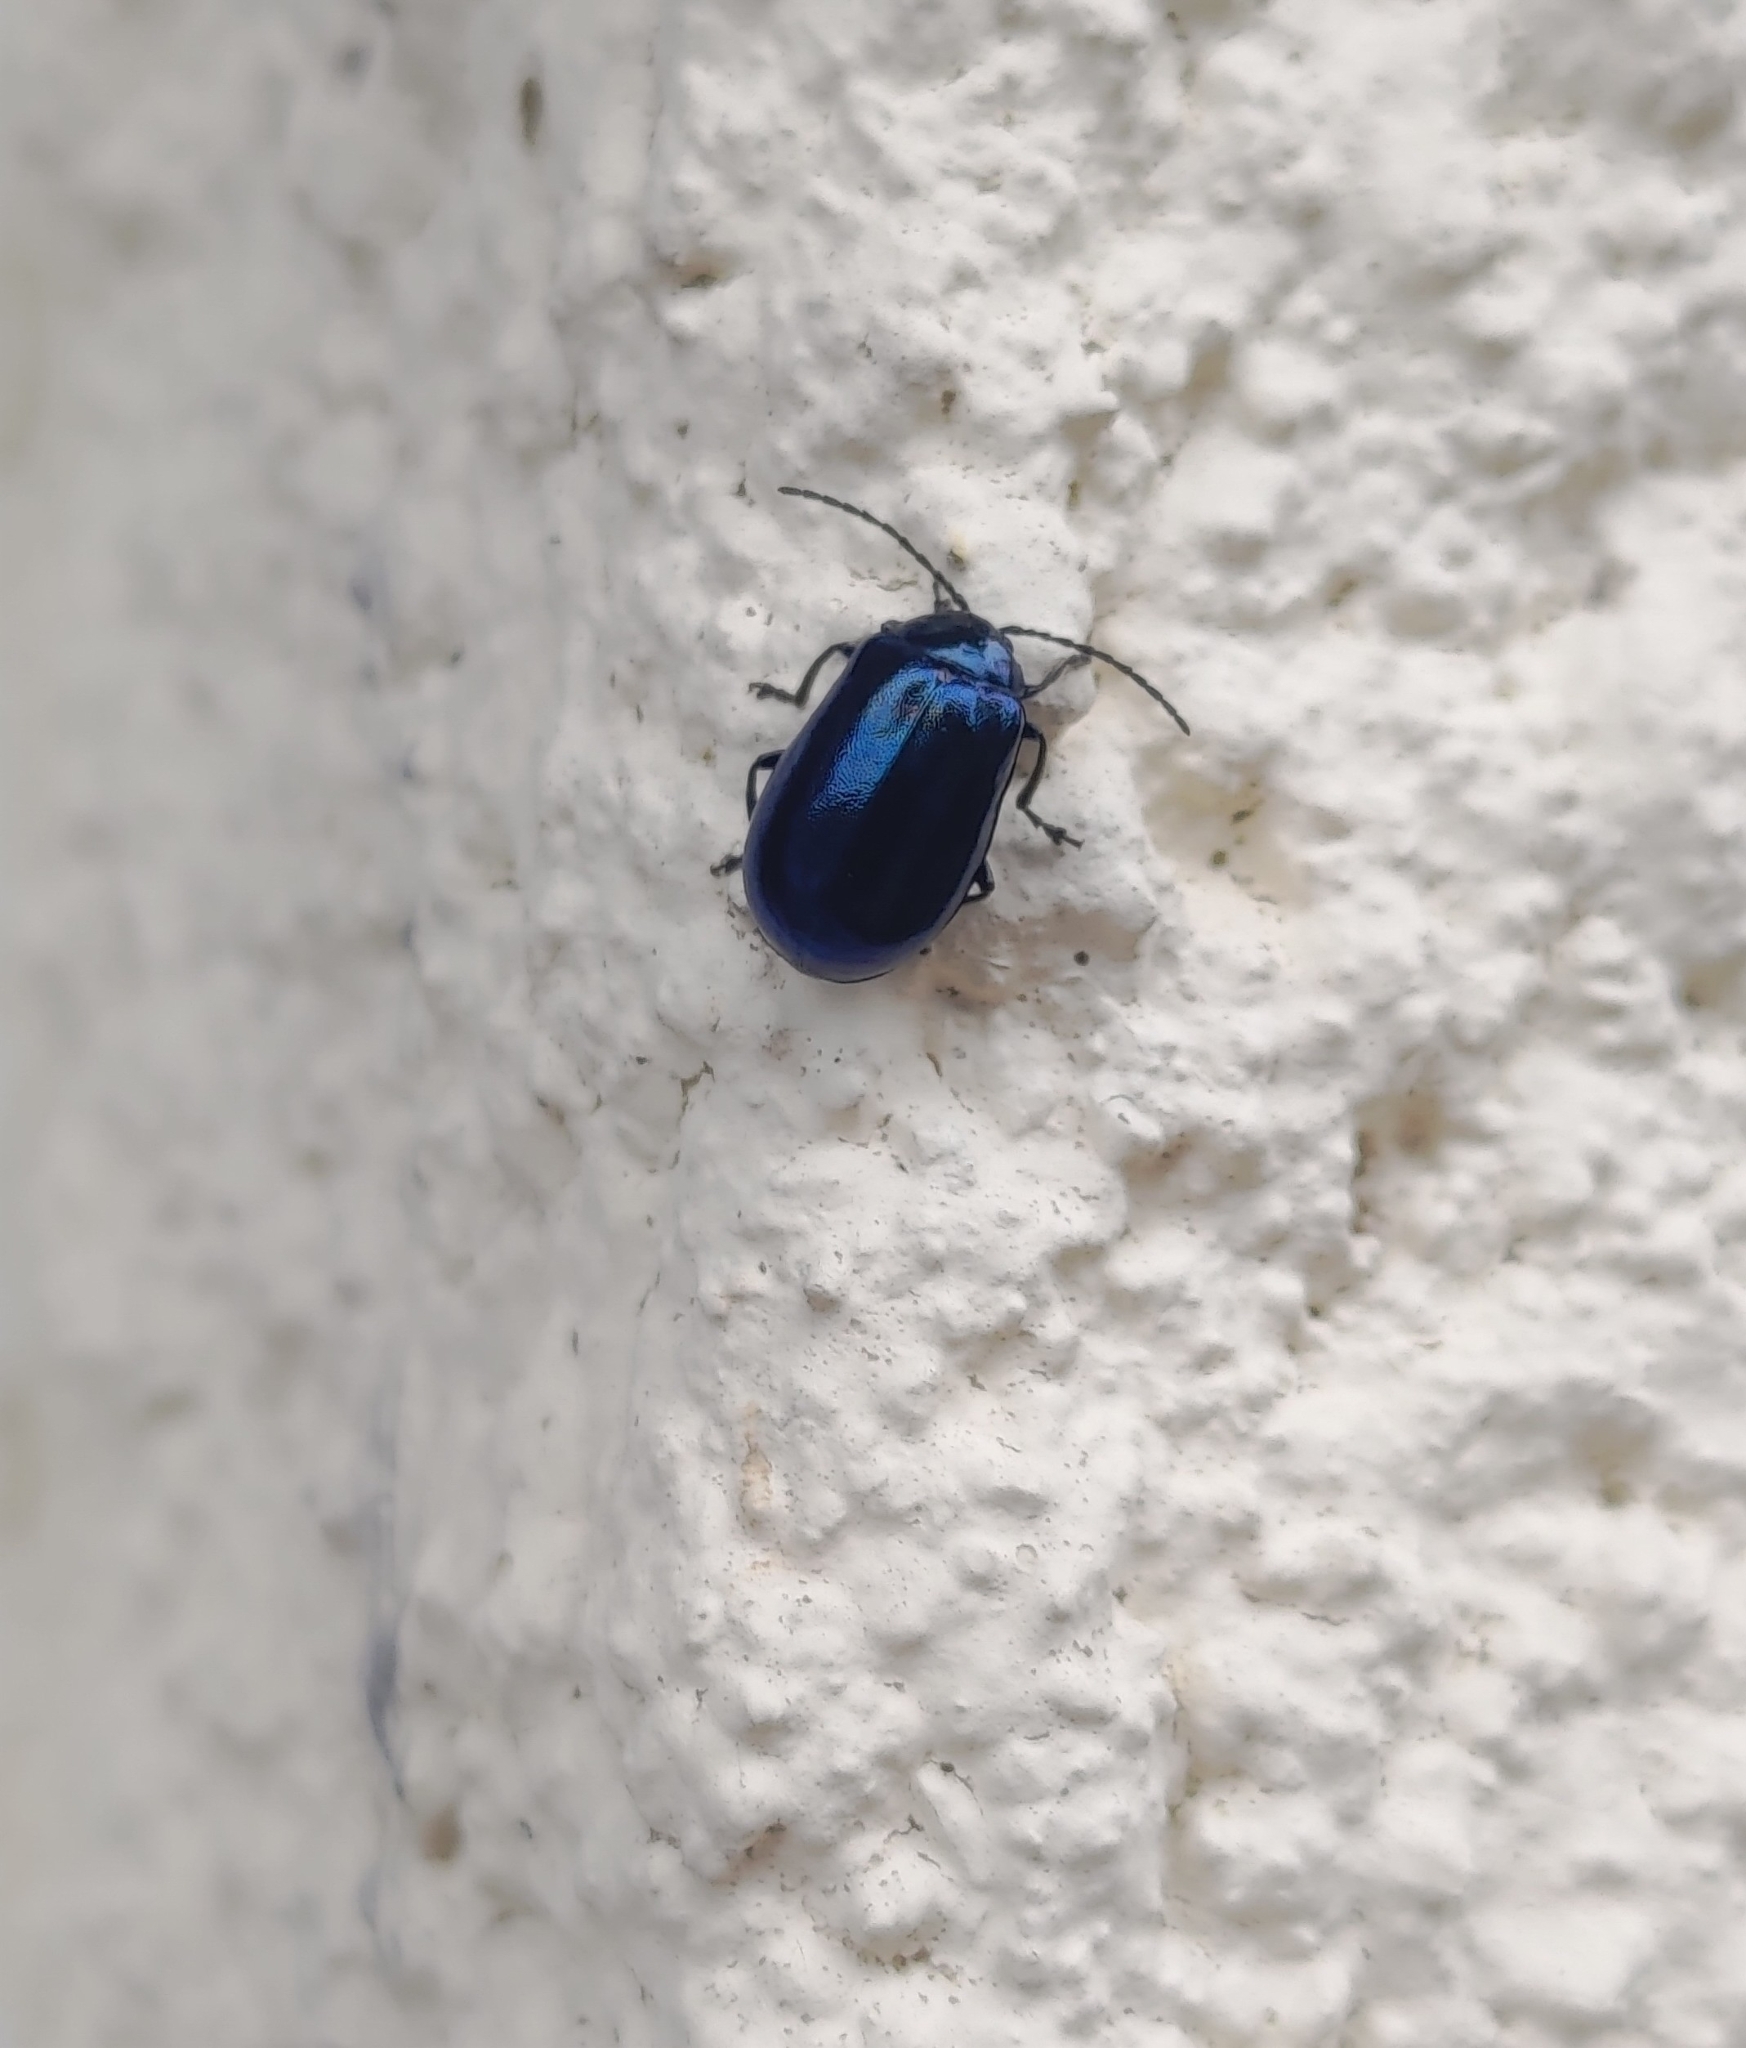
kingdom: Animalia
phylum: Arthropoda
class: Insecta
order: Coleoptera
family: Chrysomelidae
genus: Agelastica
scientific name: Agelastica alni
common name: Alder leaf beetle
